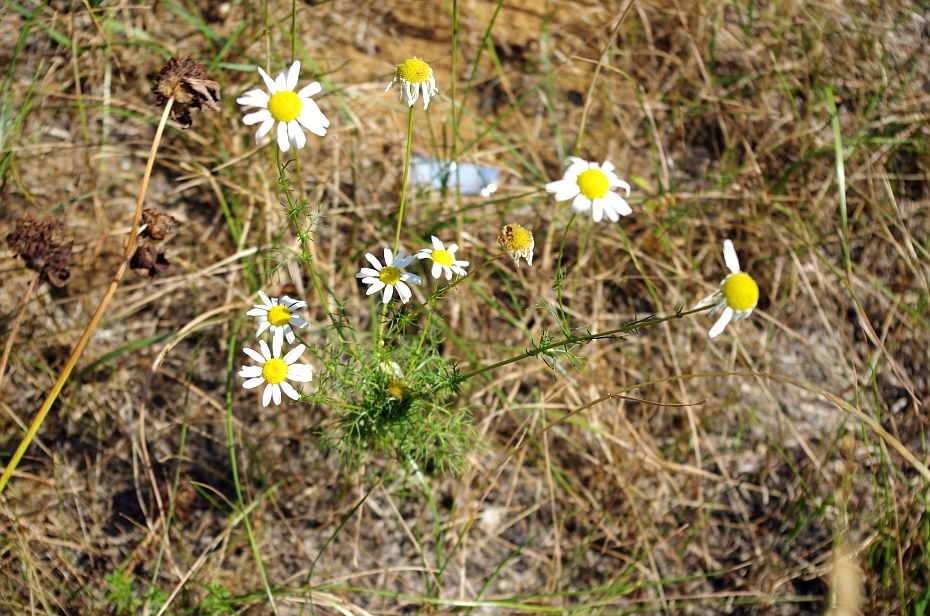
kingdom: Plantae
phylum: Tracheophyta
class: Magnoliopsida
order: Asterales
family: Asteraceae
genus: Tripleurospermum
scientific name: Tripleurospermum inodorum
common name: Scentless mayweed
